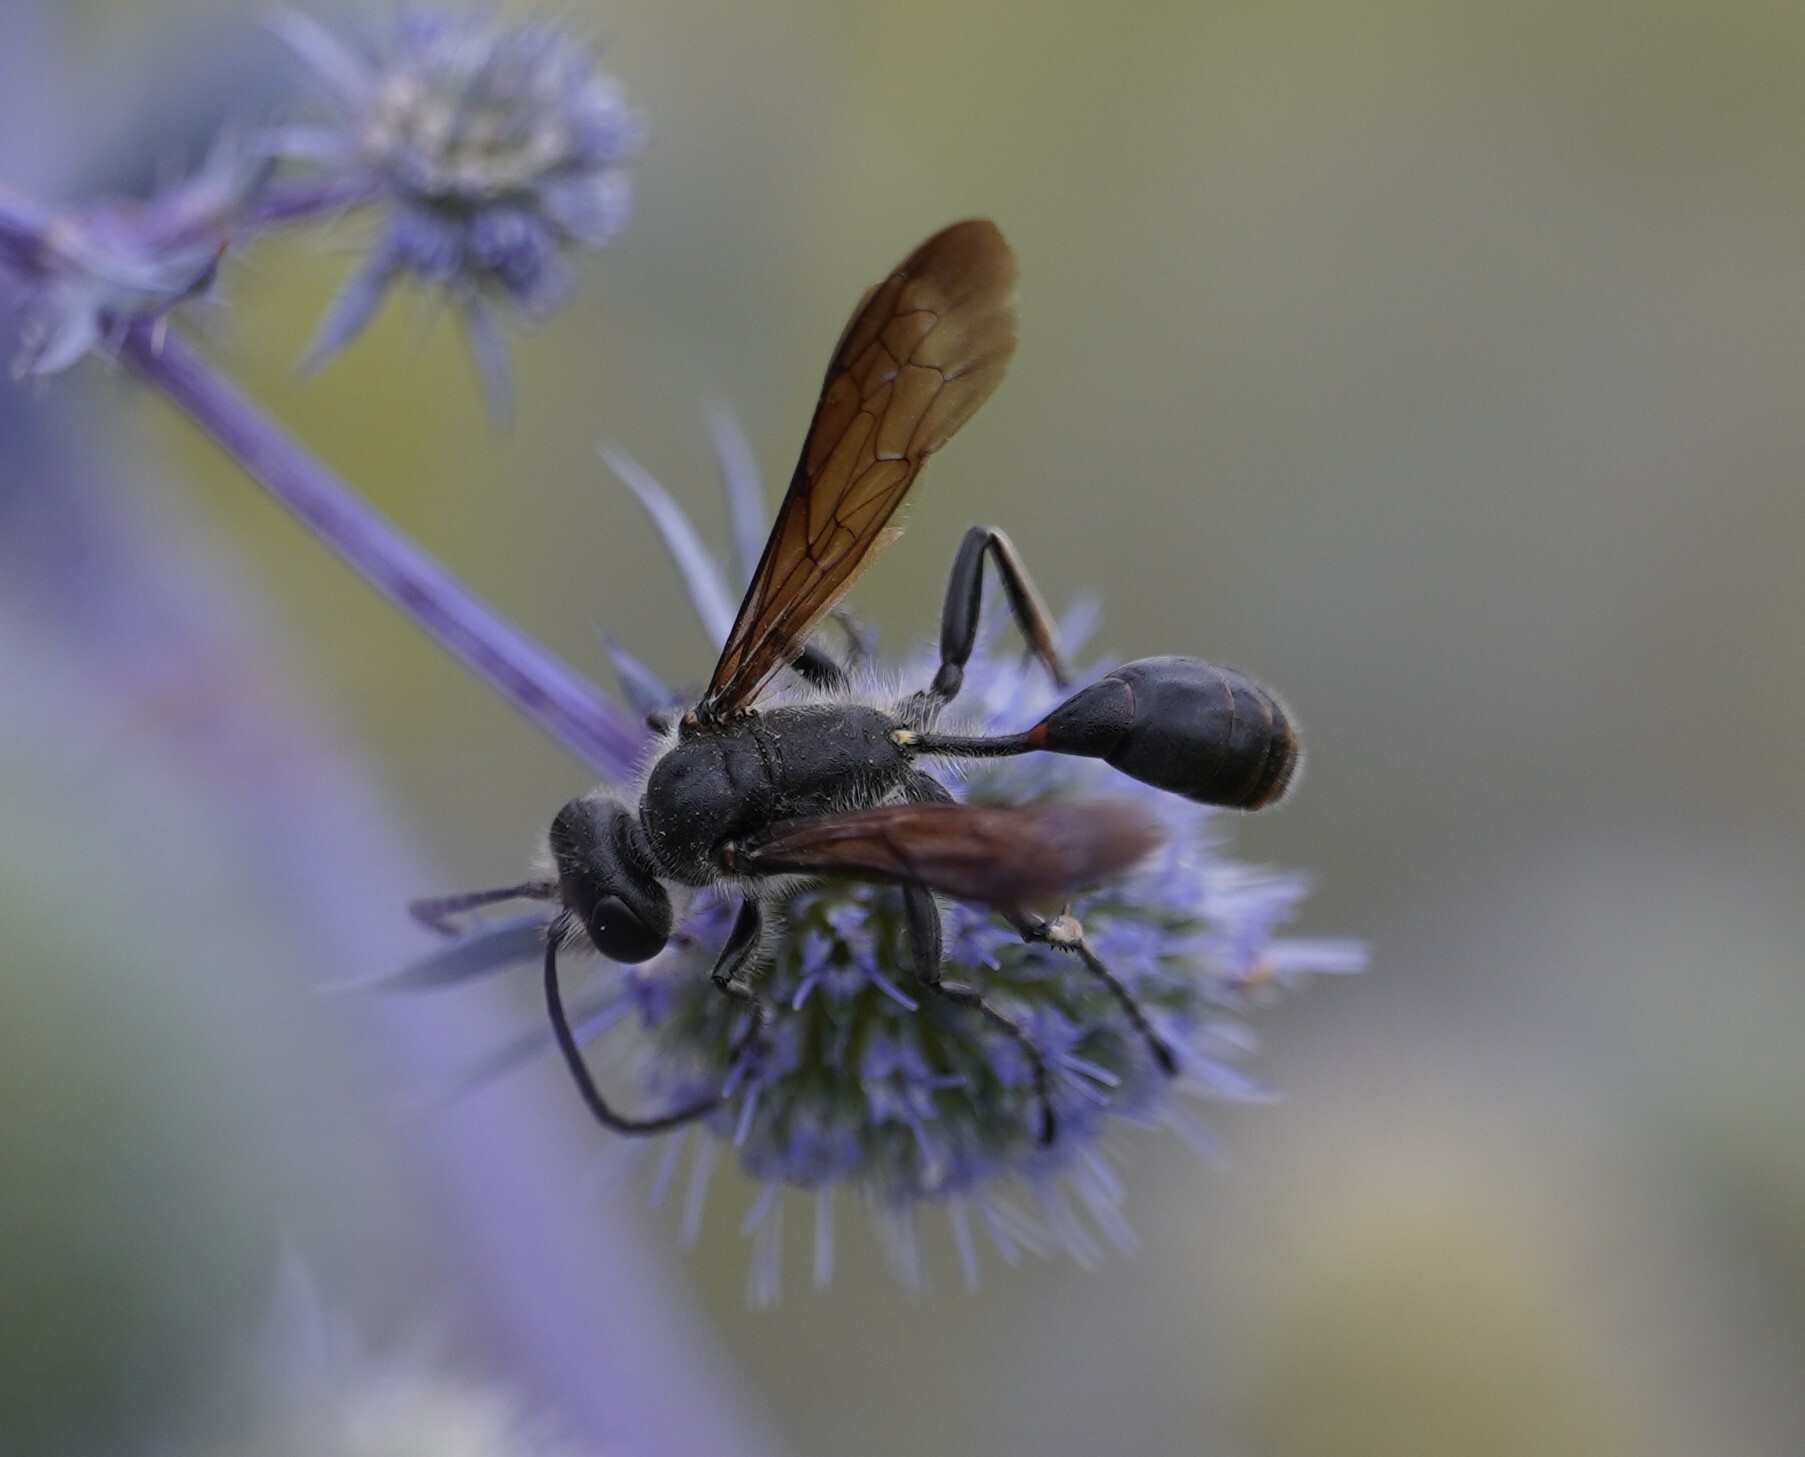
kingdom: Animalia
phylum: Arthropoda
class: Insecta
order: Hymenoptera
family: Sphecidae
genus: Isodontia
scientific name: Isodontia mexicana
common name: Mud dauber
